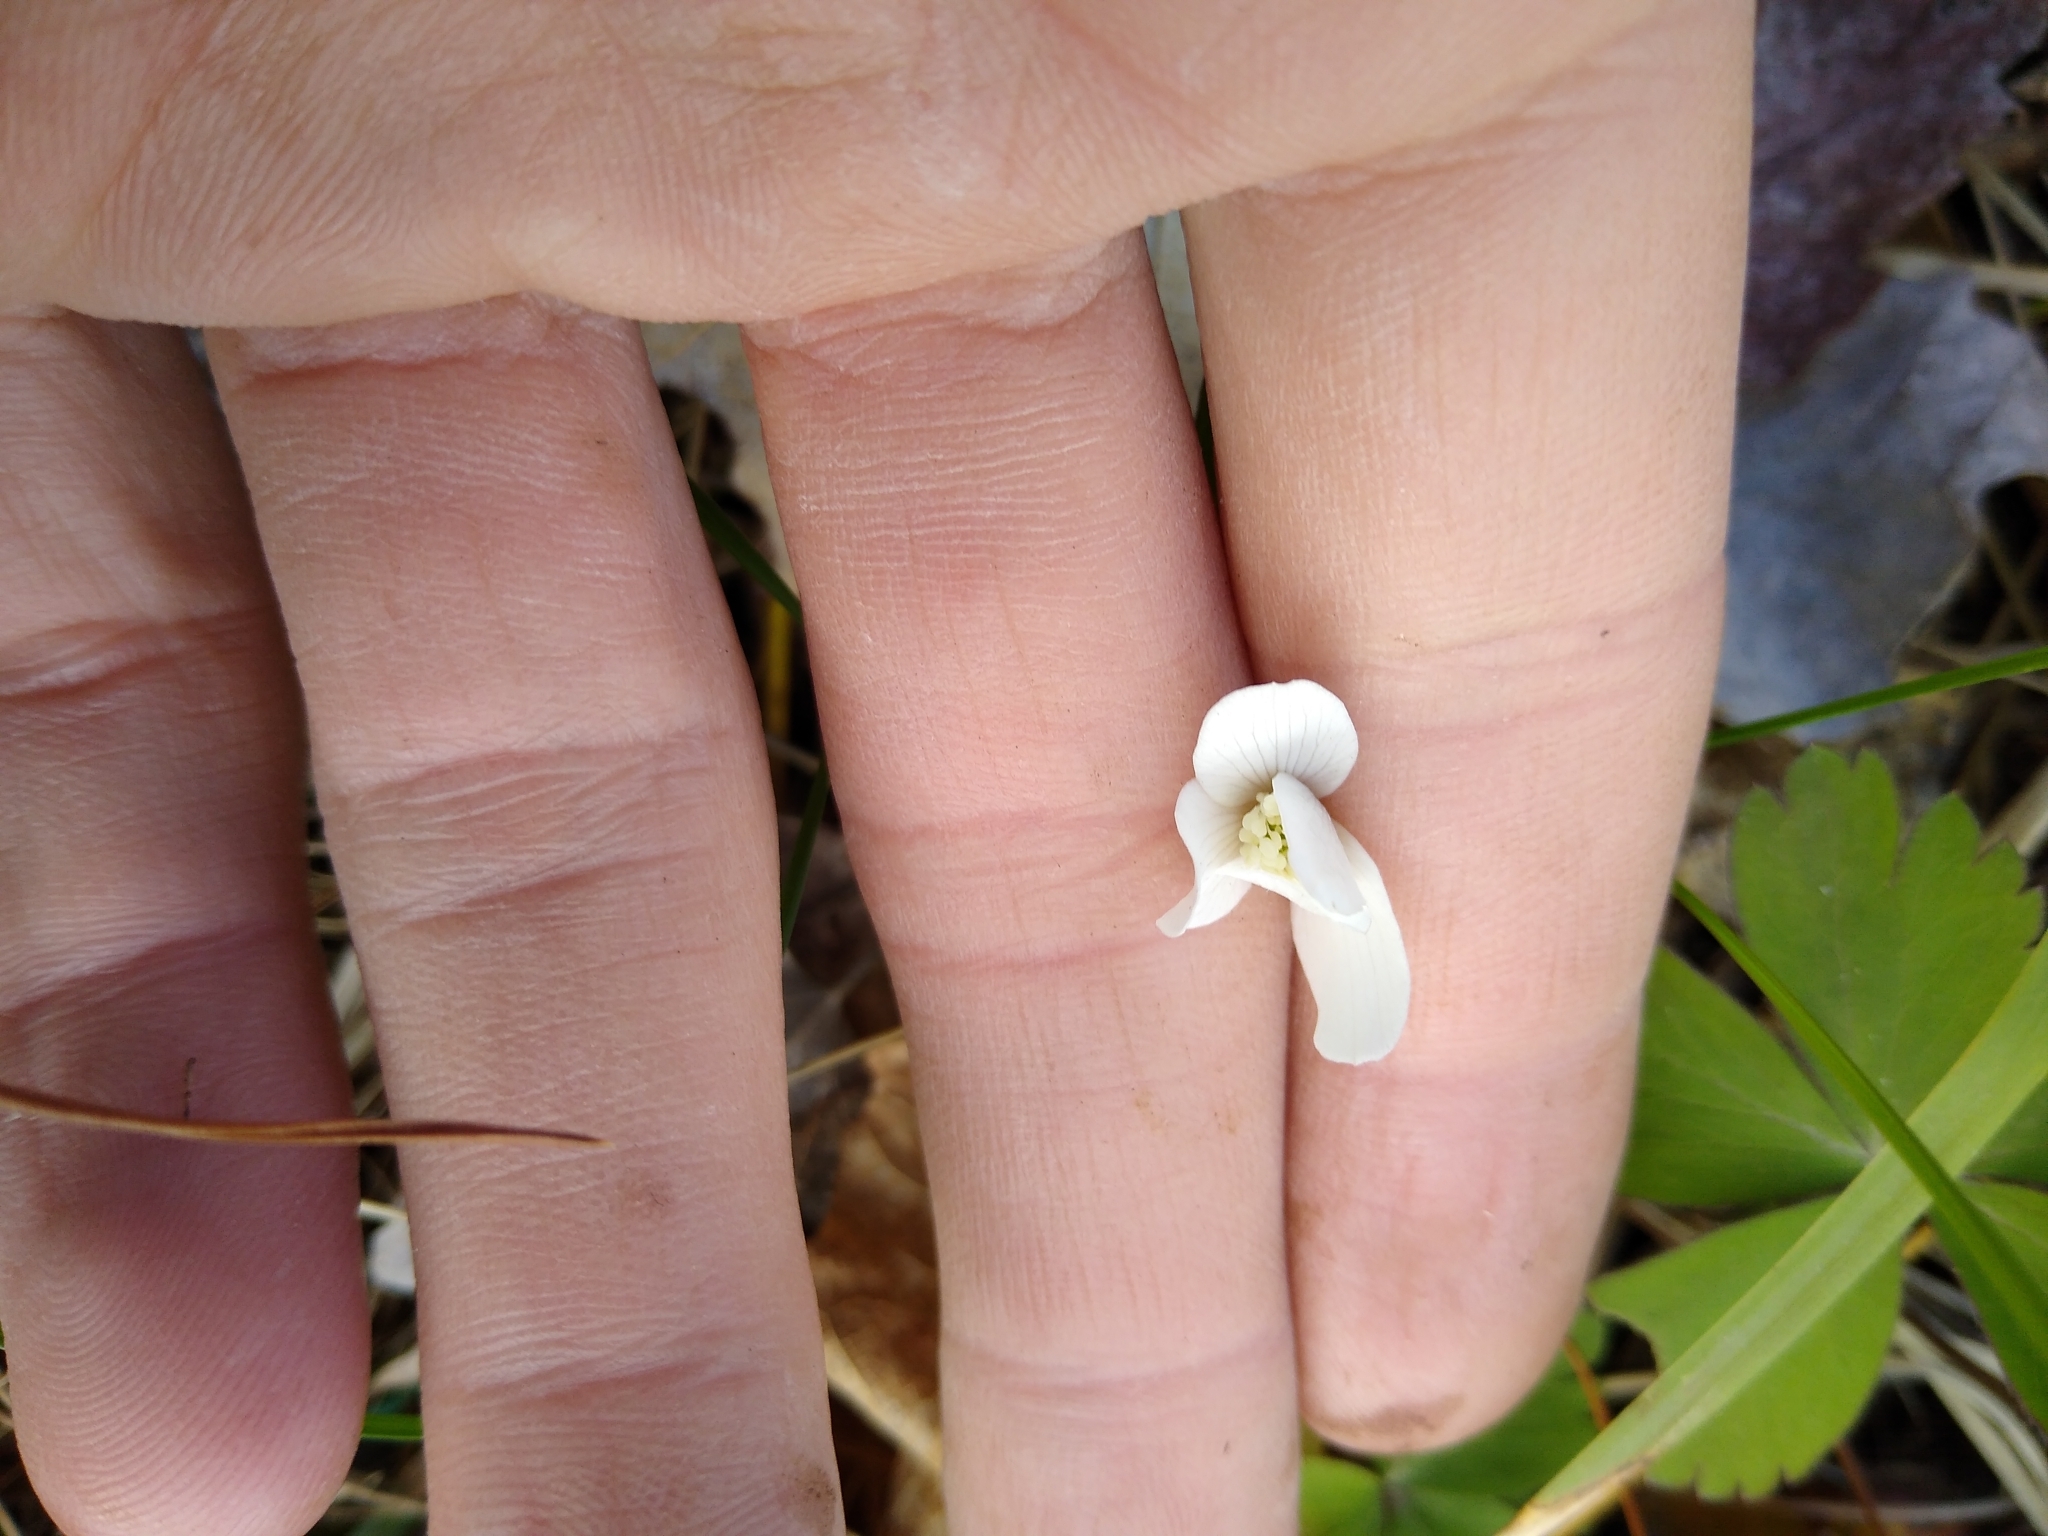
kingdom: Plantae
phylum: Tracheophyta
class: Magnoliopsida
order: Ranunculales
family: Ranunculaceae
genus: Anemone
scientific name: Anemone quinquefolia
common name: Wood anemone
